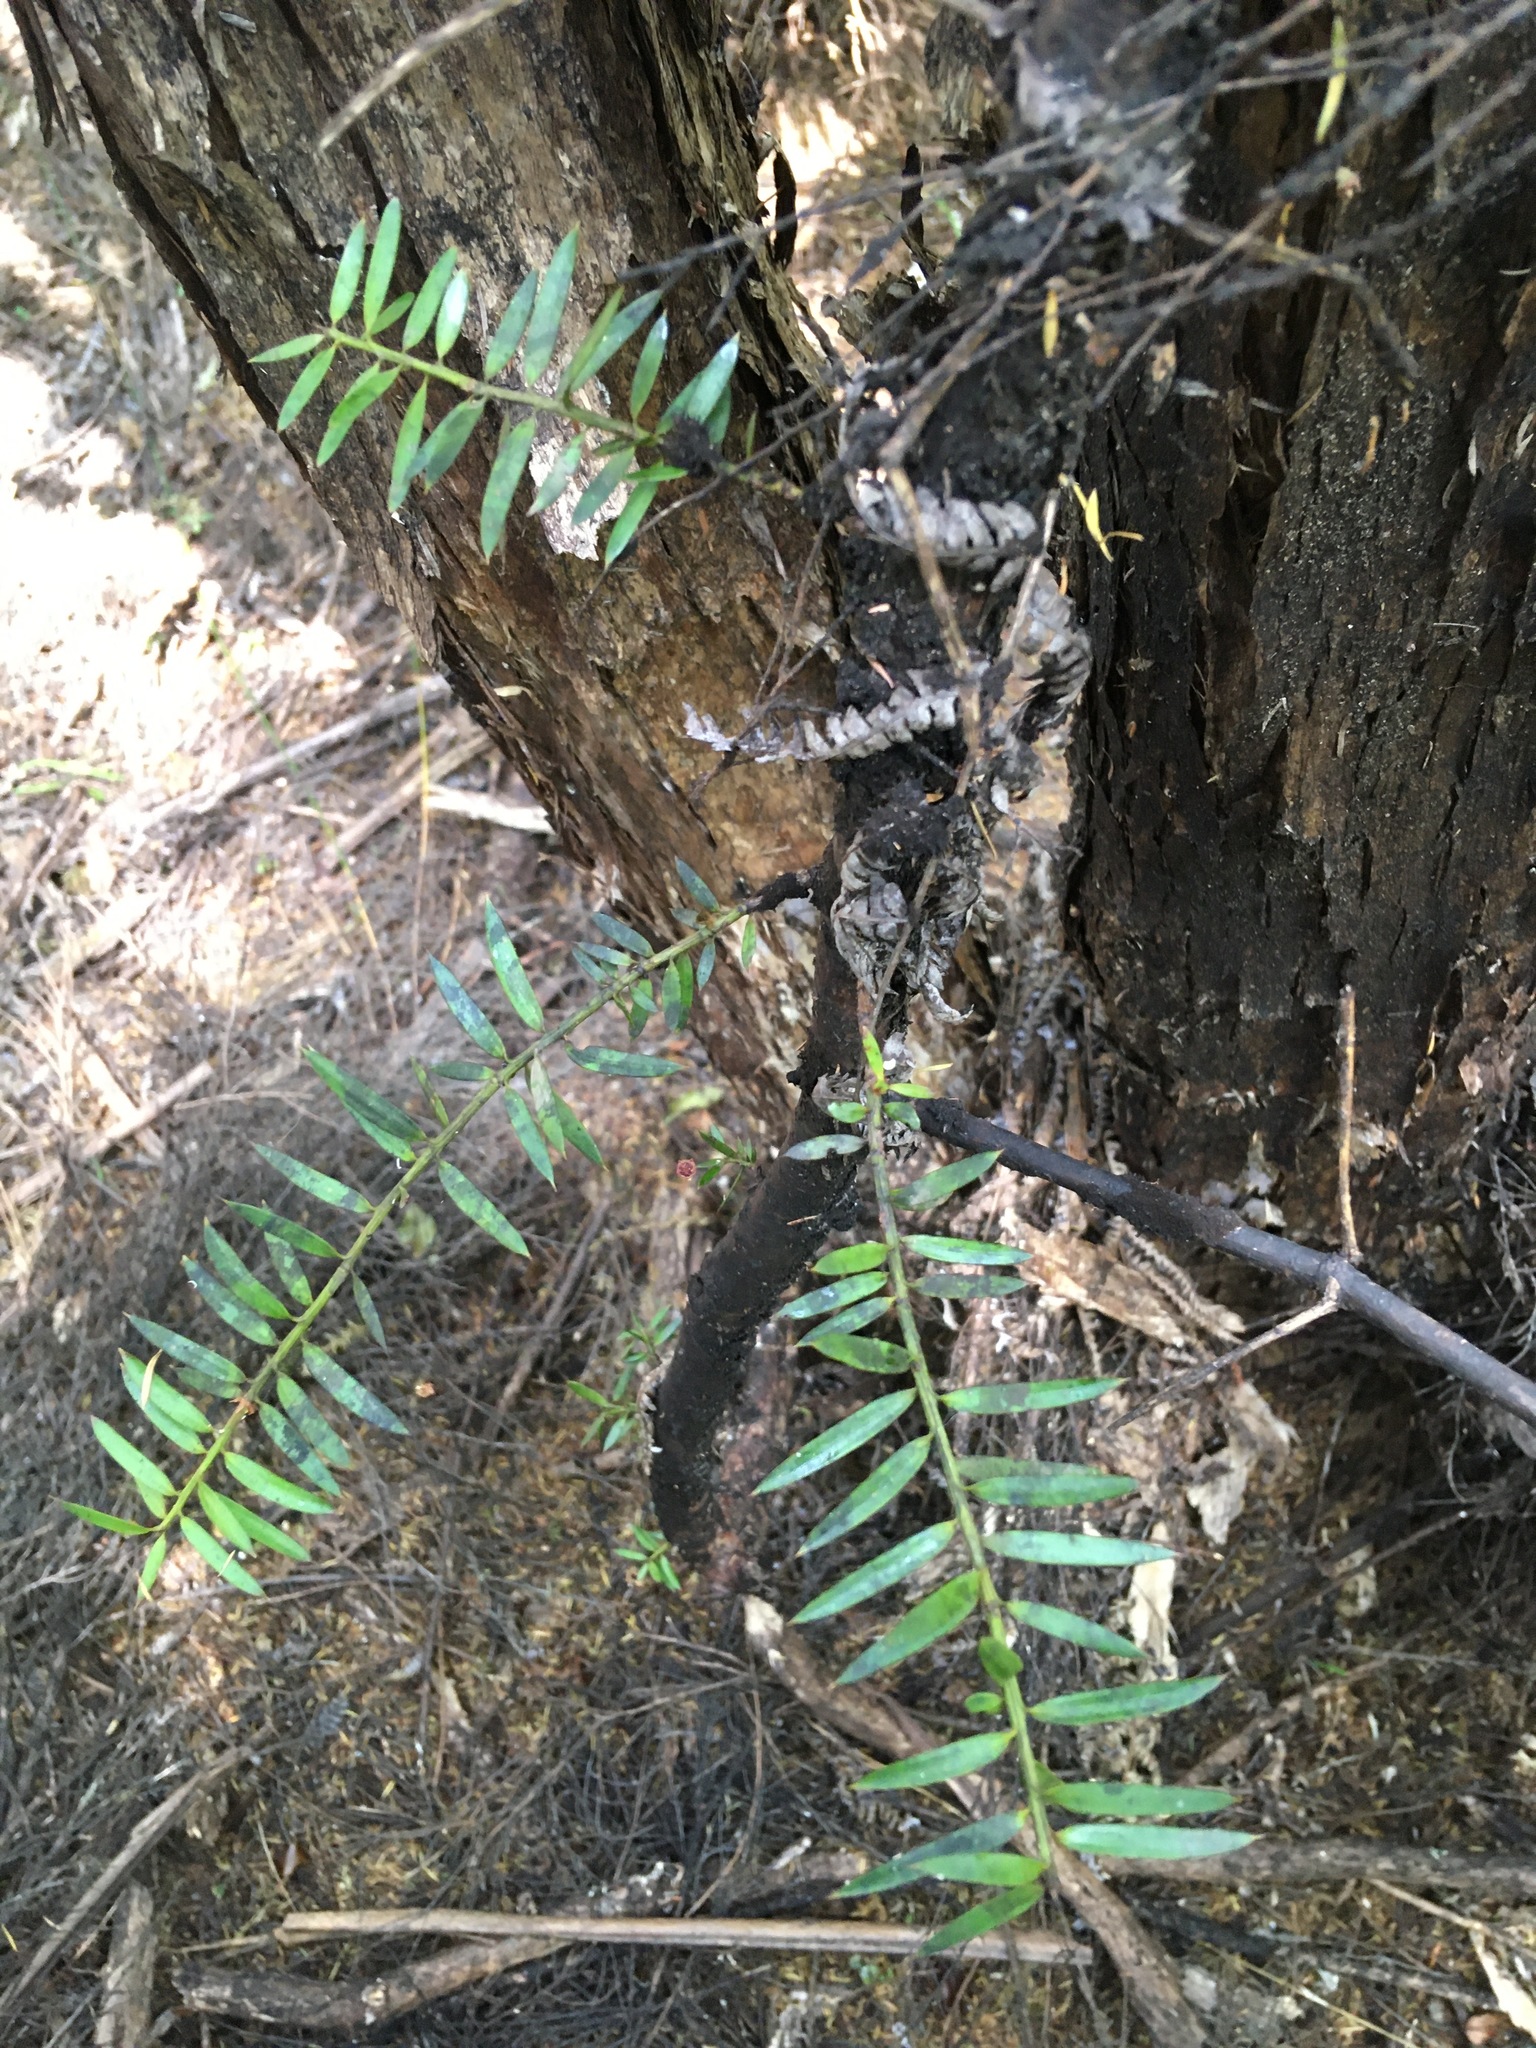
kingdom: Plantae
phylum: Tracheophyta
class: Pinopsida
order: Pinales
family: Podocarpaceae
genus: Podocarpus
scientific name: Podocarpus totara
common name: Totara
